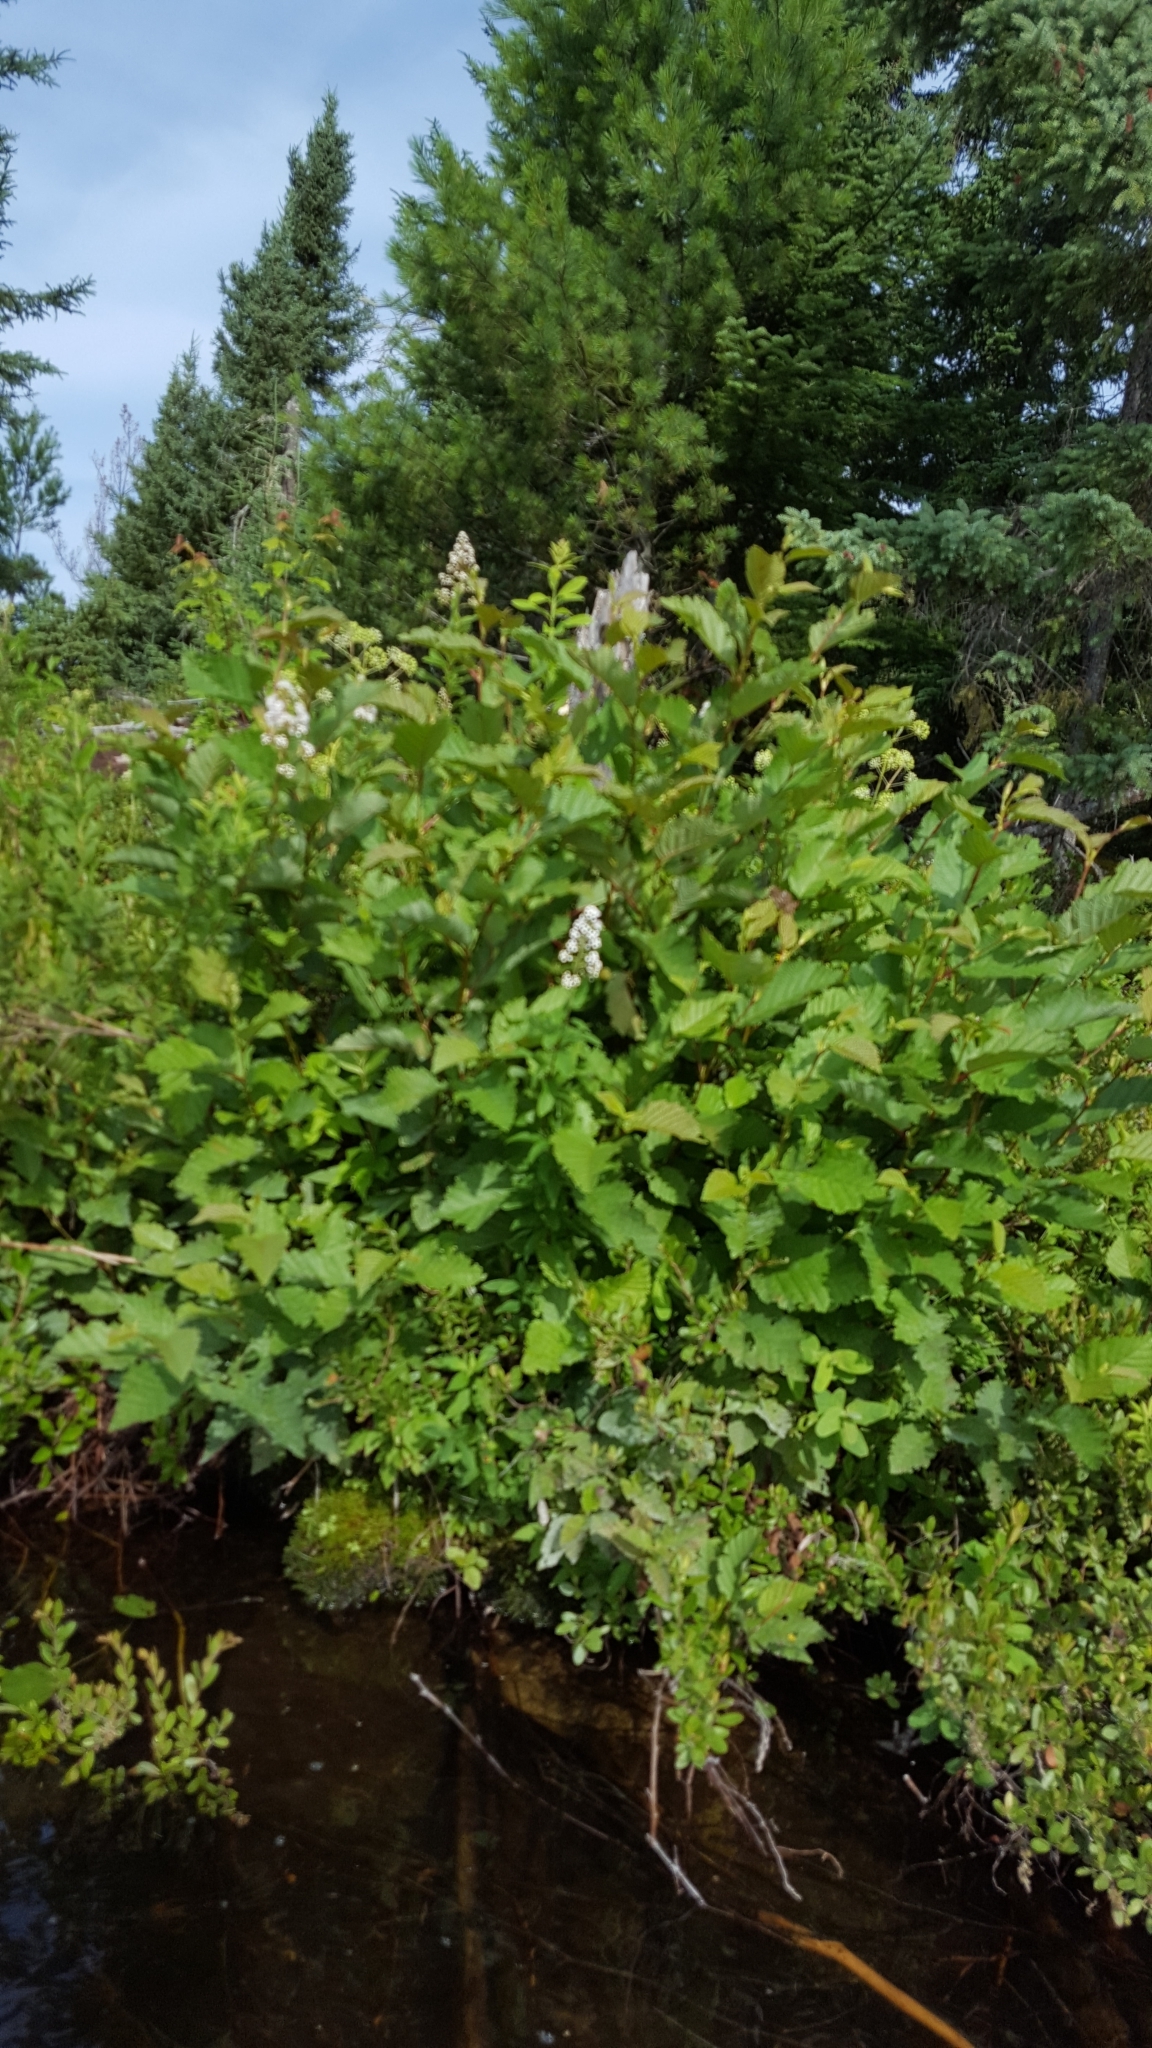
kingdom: Plantae
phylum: Tracheophyta
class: Magnoliopsida
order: Rosales
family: Rosaceae
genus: Spiraea
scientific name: Spiraea alba
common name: Pale bridewort
